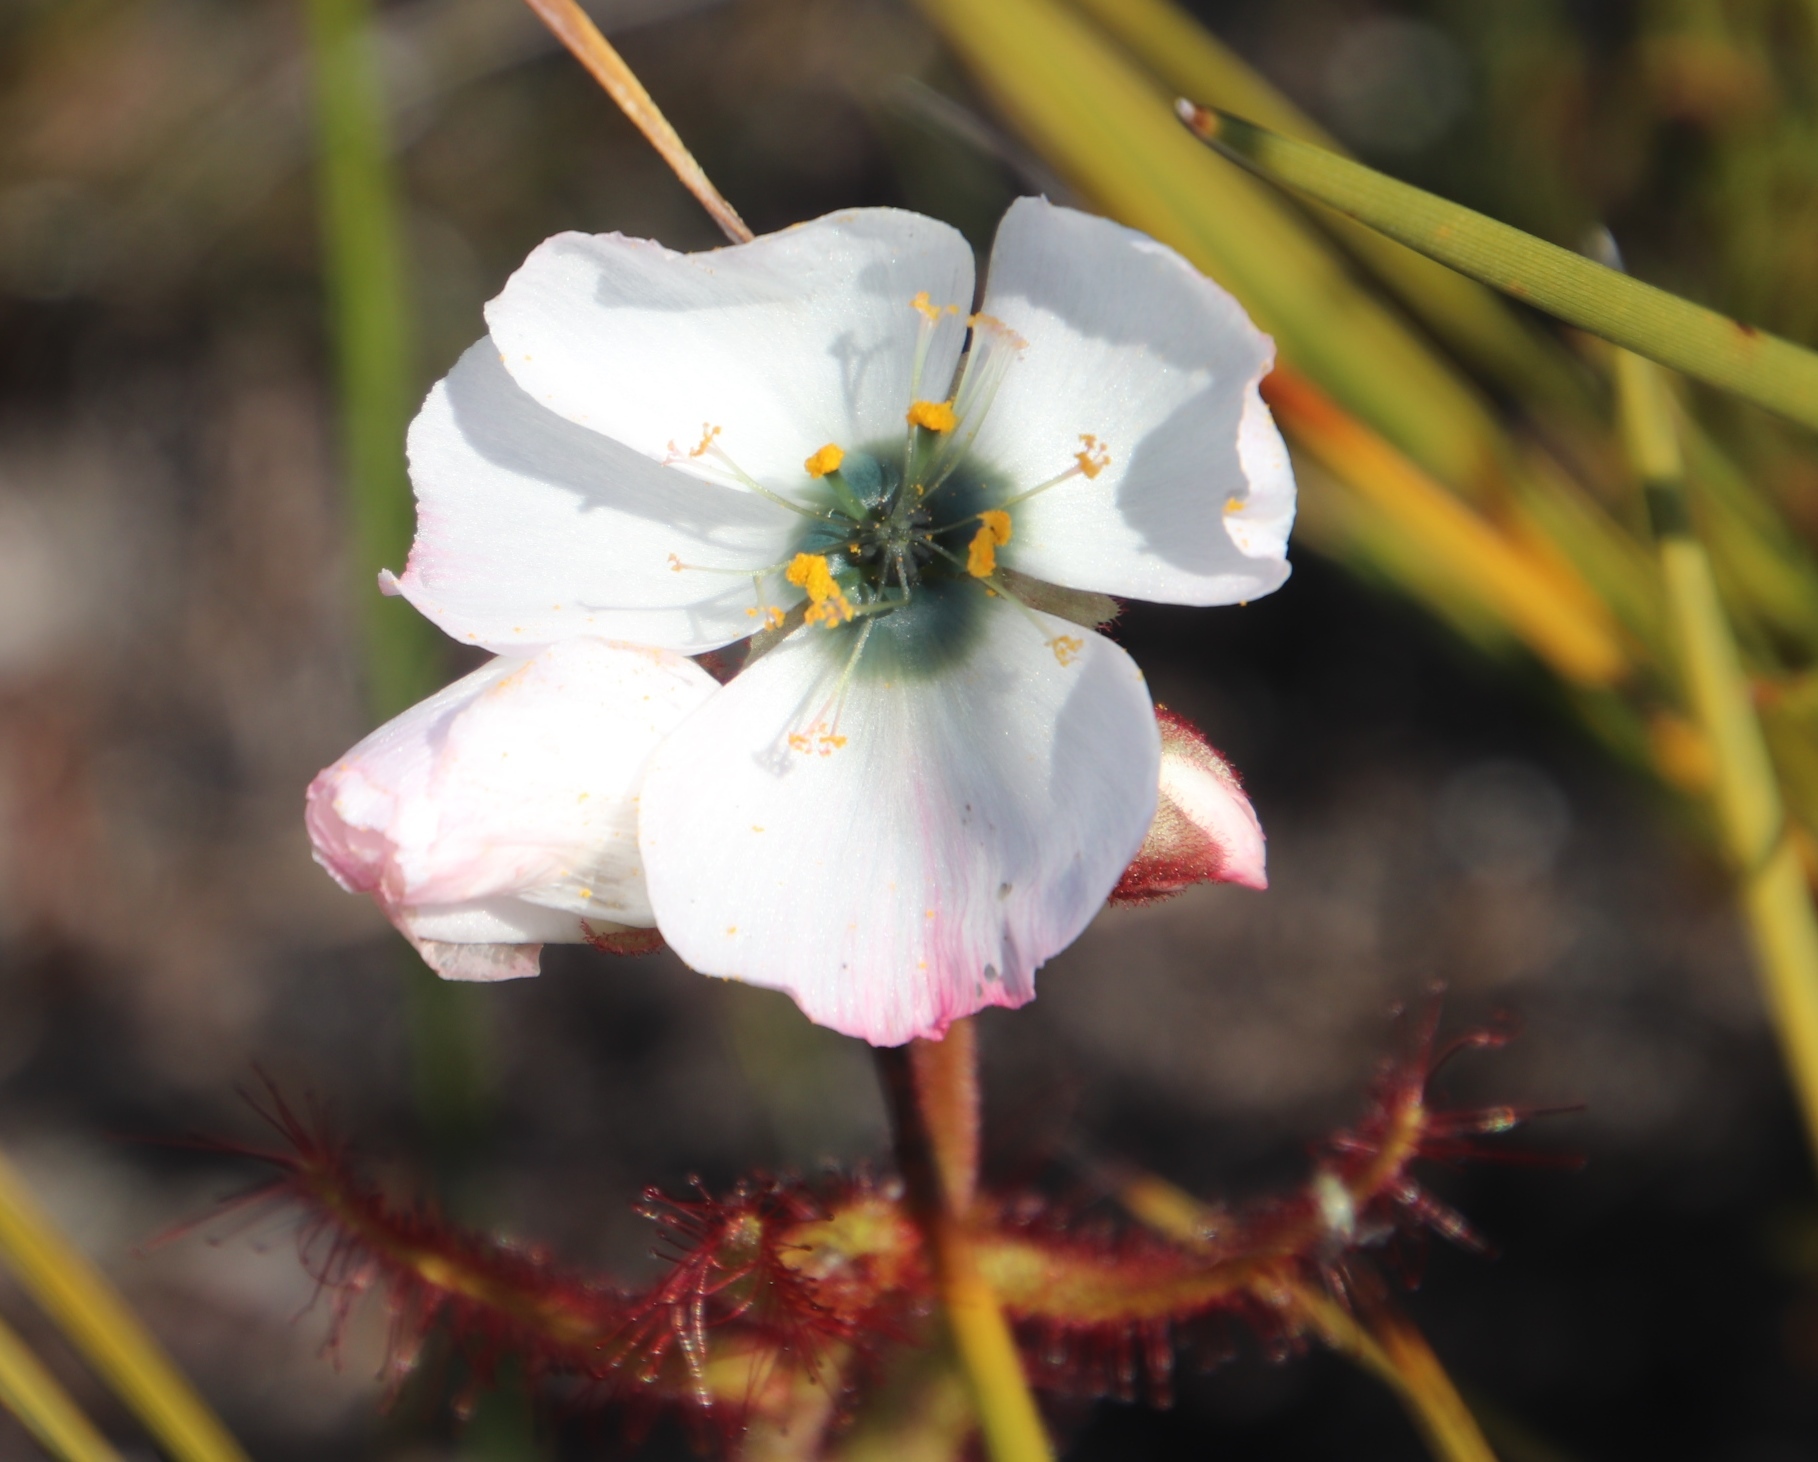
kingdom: Plantae
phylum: Tracheophyta
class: Magnoliopsida
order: Caryophyllales
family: Droseraceae
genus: Drosera
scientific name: Drosera cistiflora
